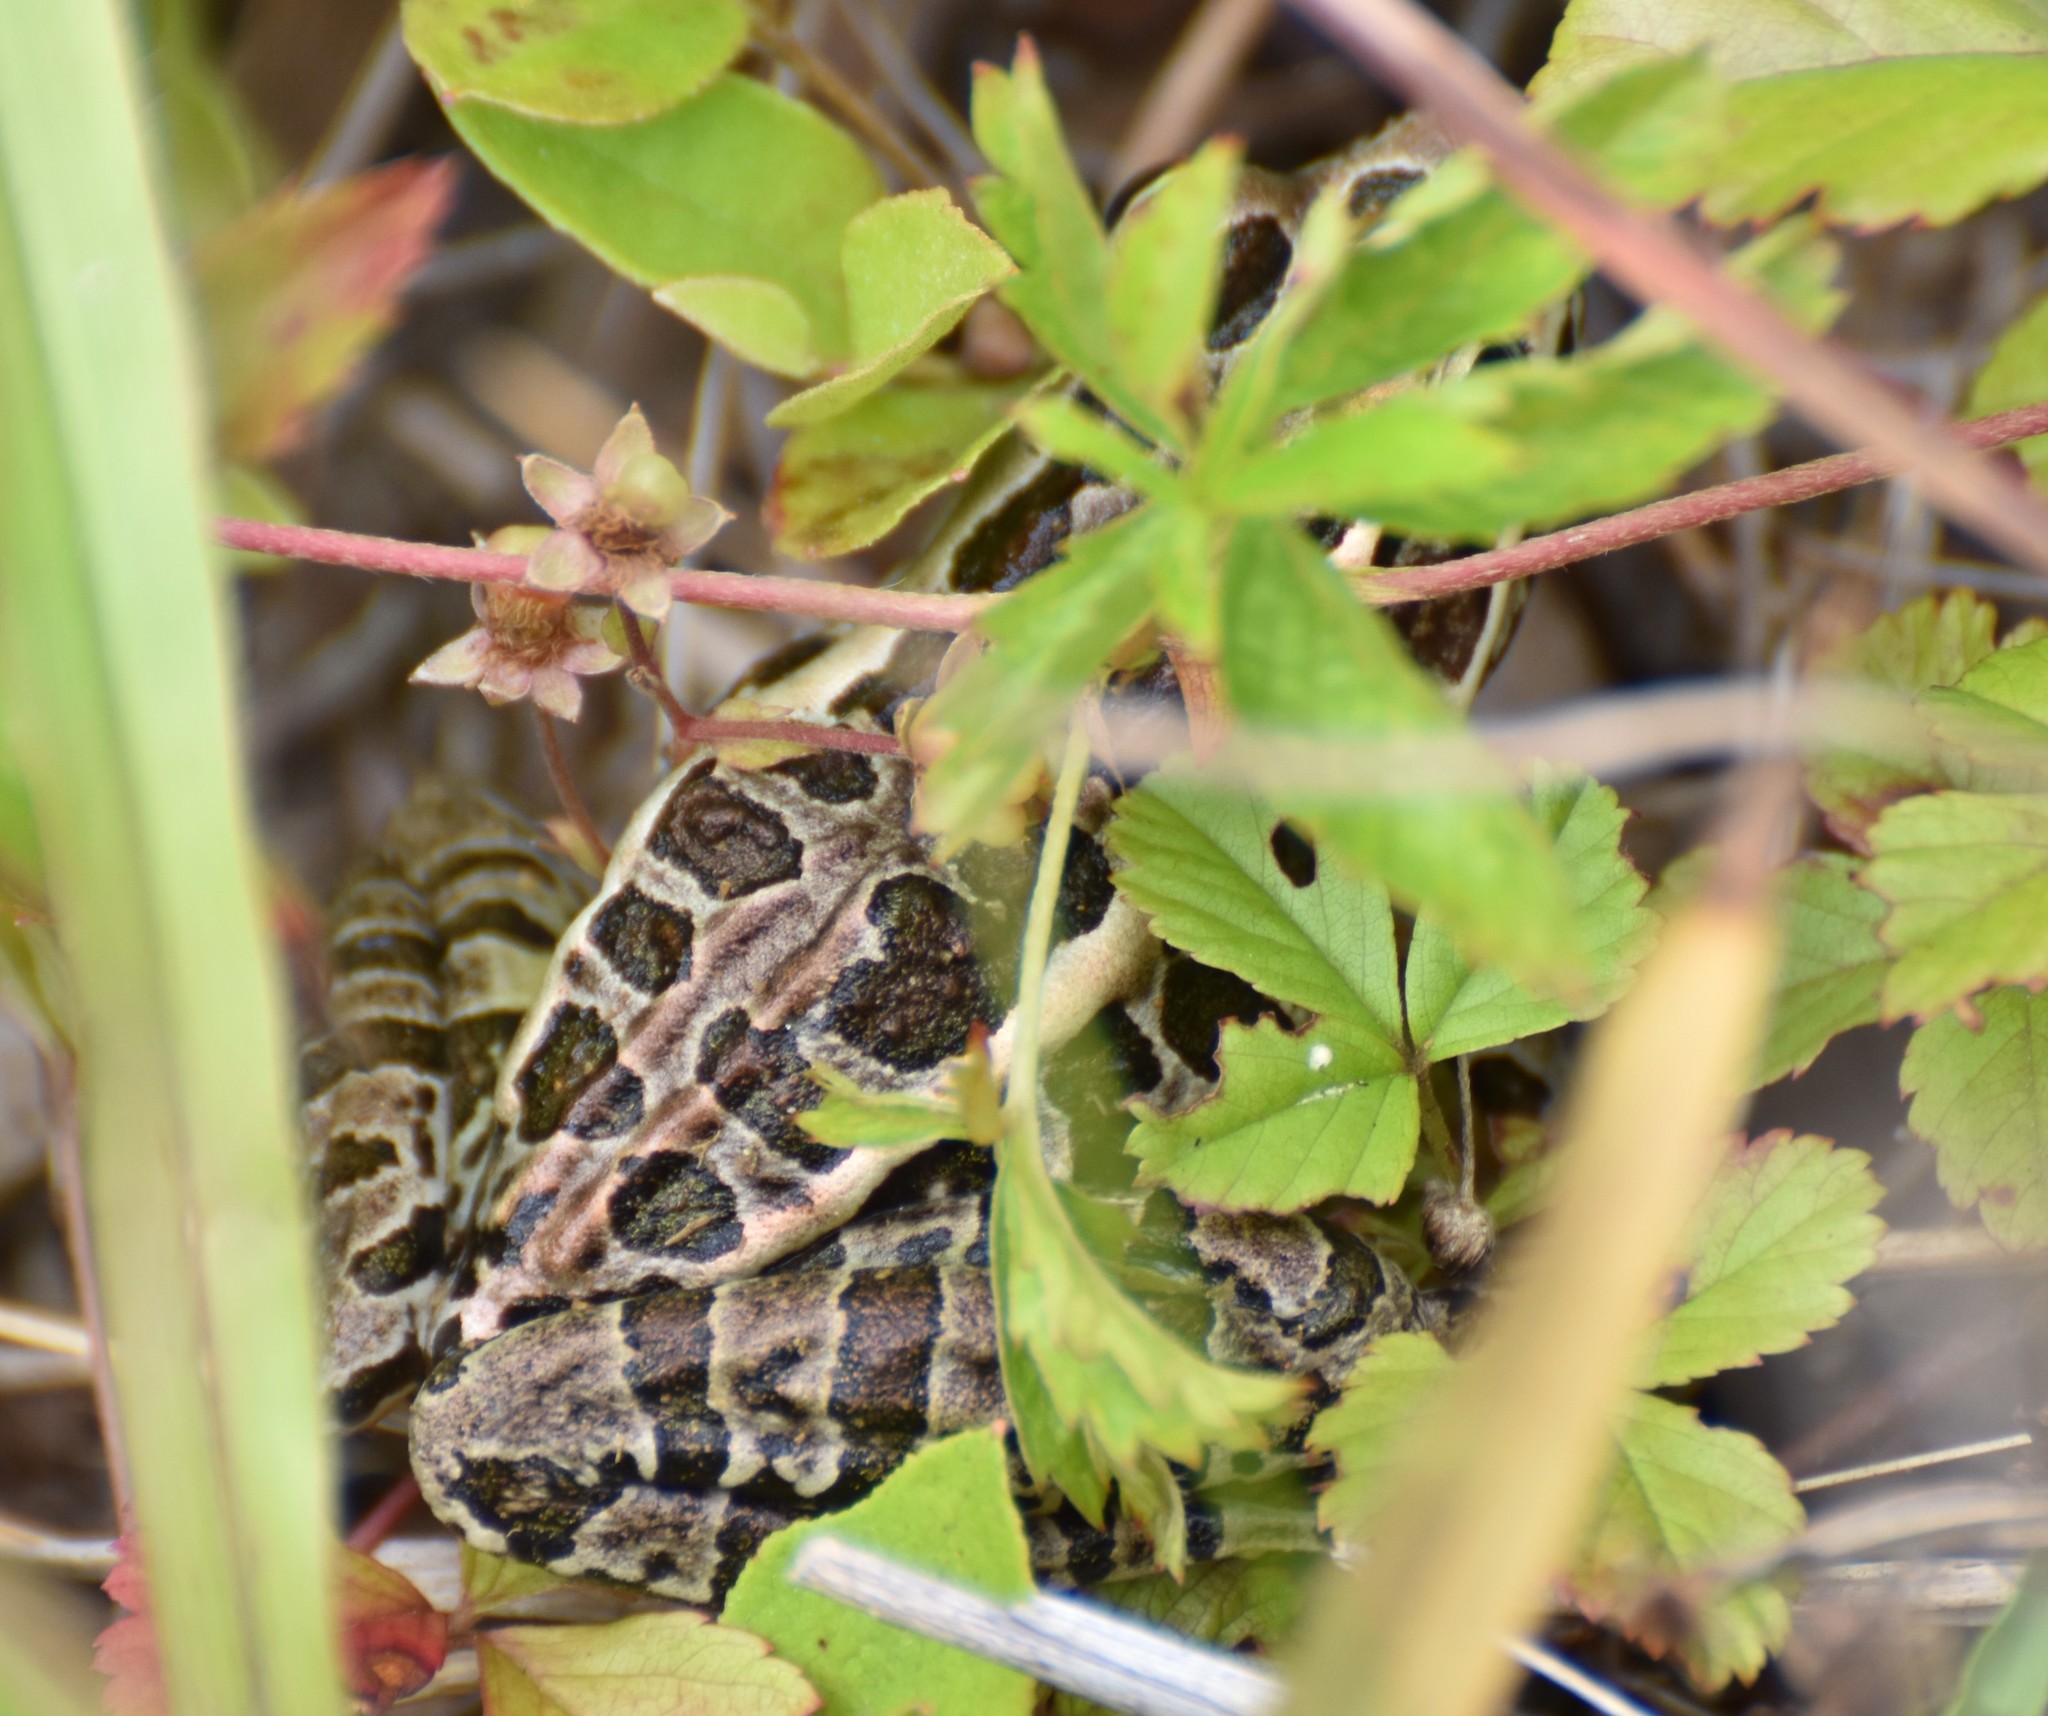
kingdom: Animalia
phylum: Chordata
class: Amphibia
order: Anura
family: Ranidae
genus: Lithobates
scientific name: Lithobates palustris
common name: Pickerel frog
